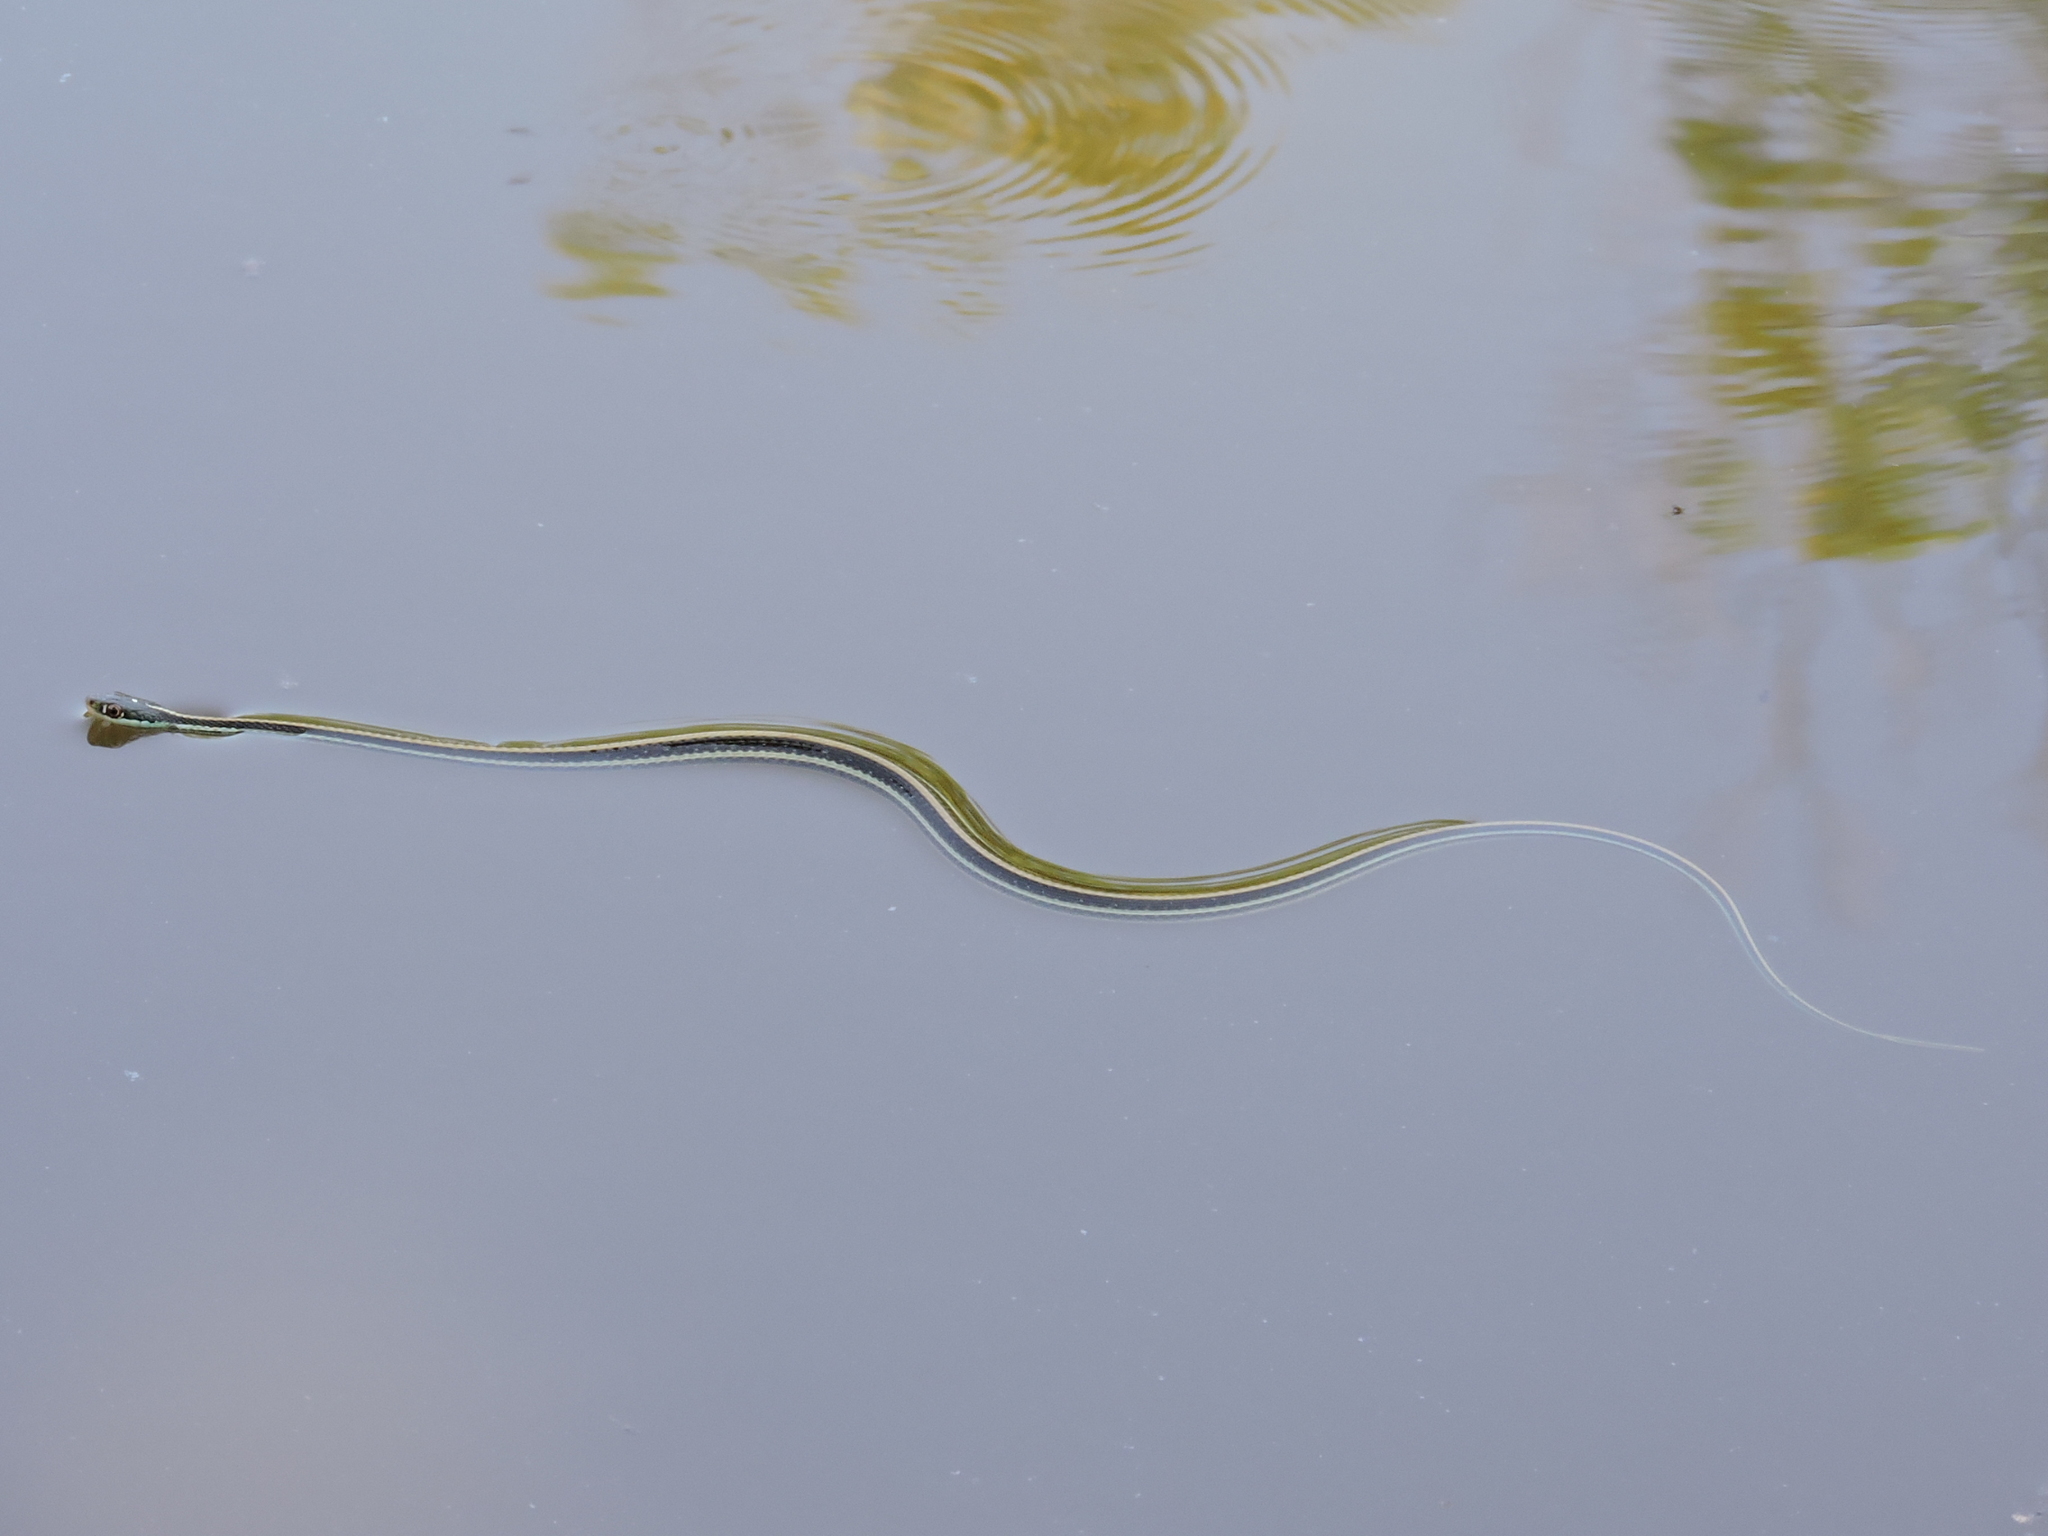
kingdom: Animalia
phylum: Chordata
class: Squamata
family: Colubridae
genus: Thamnophis
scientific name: Thamnophis proximus
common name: Western ribbon snake
